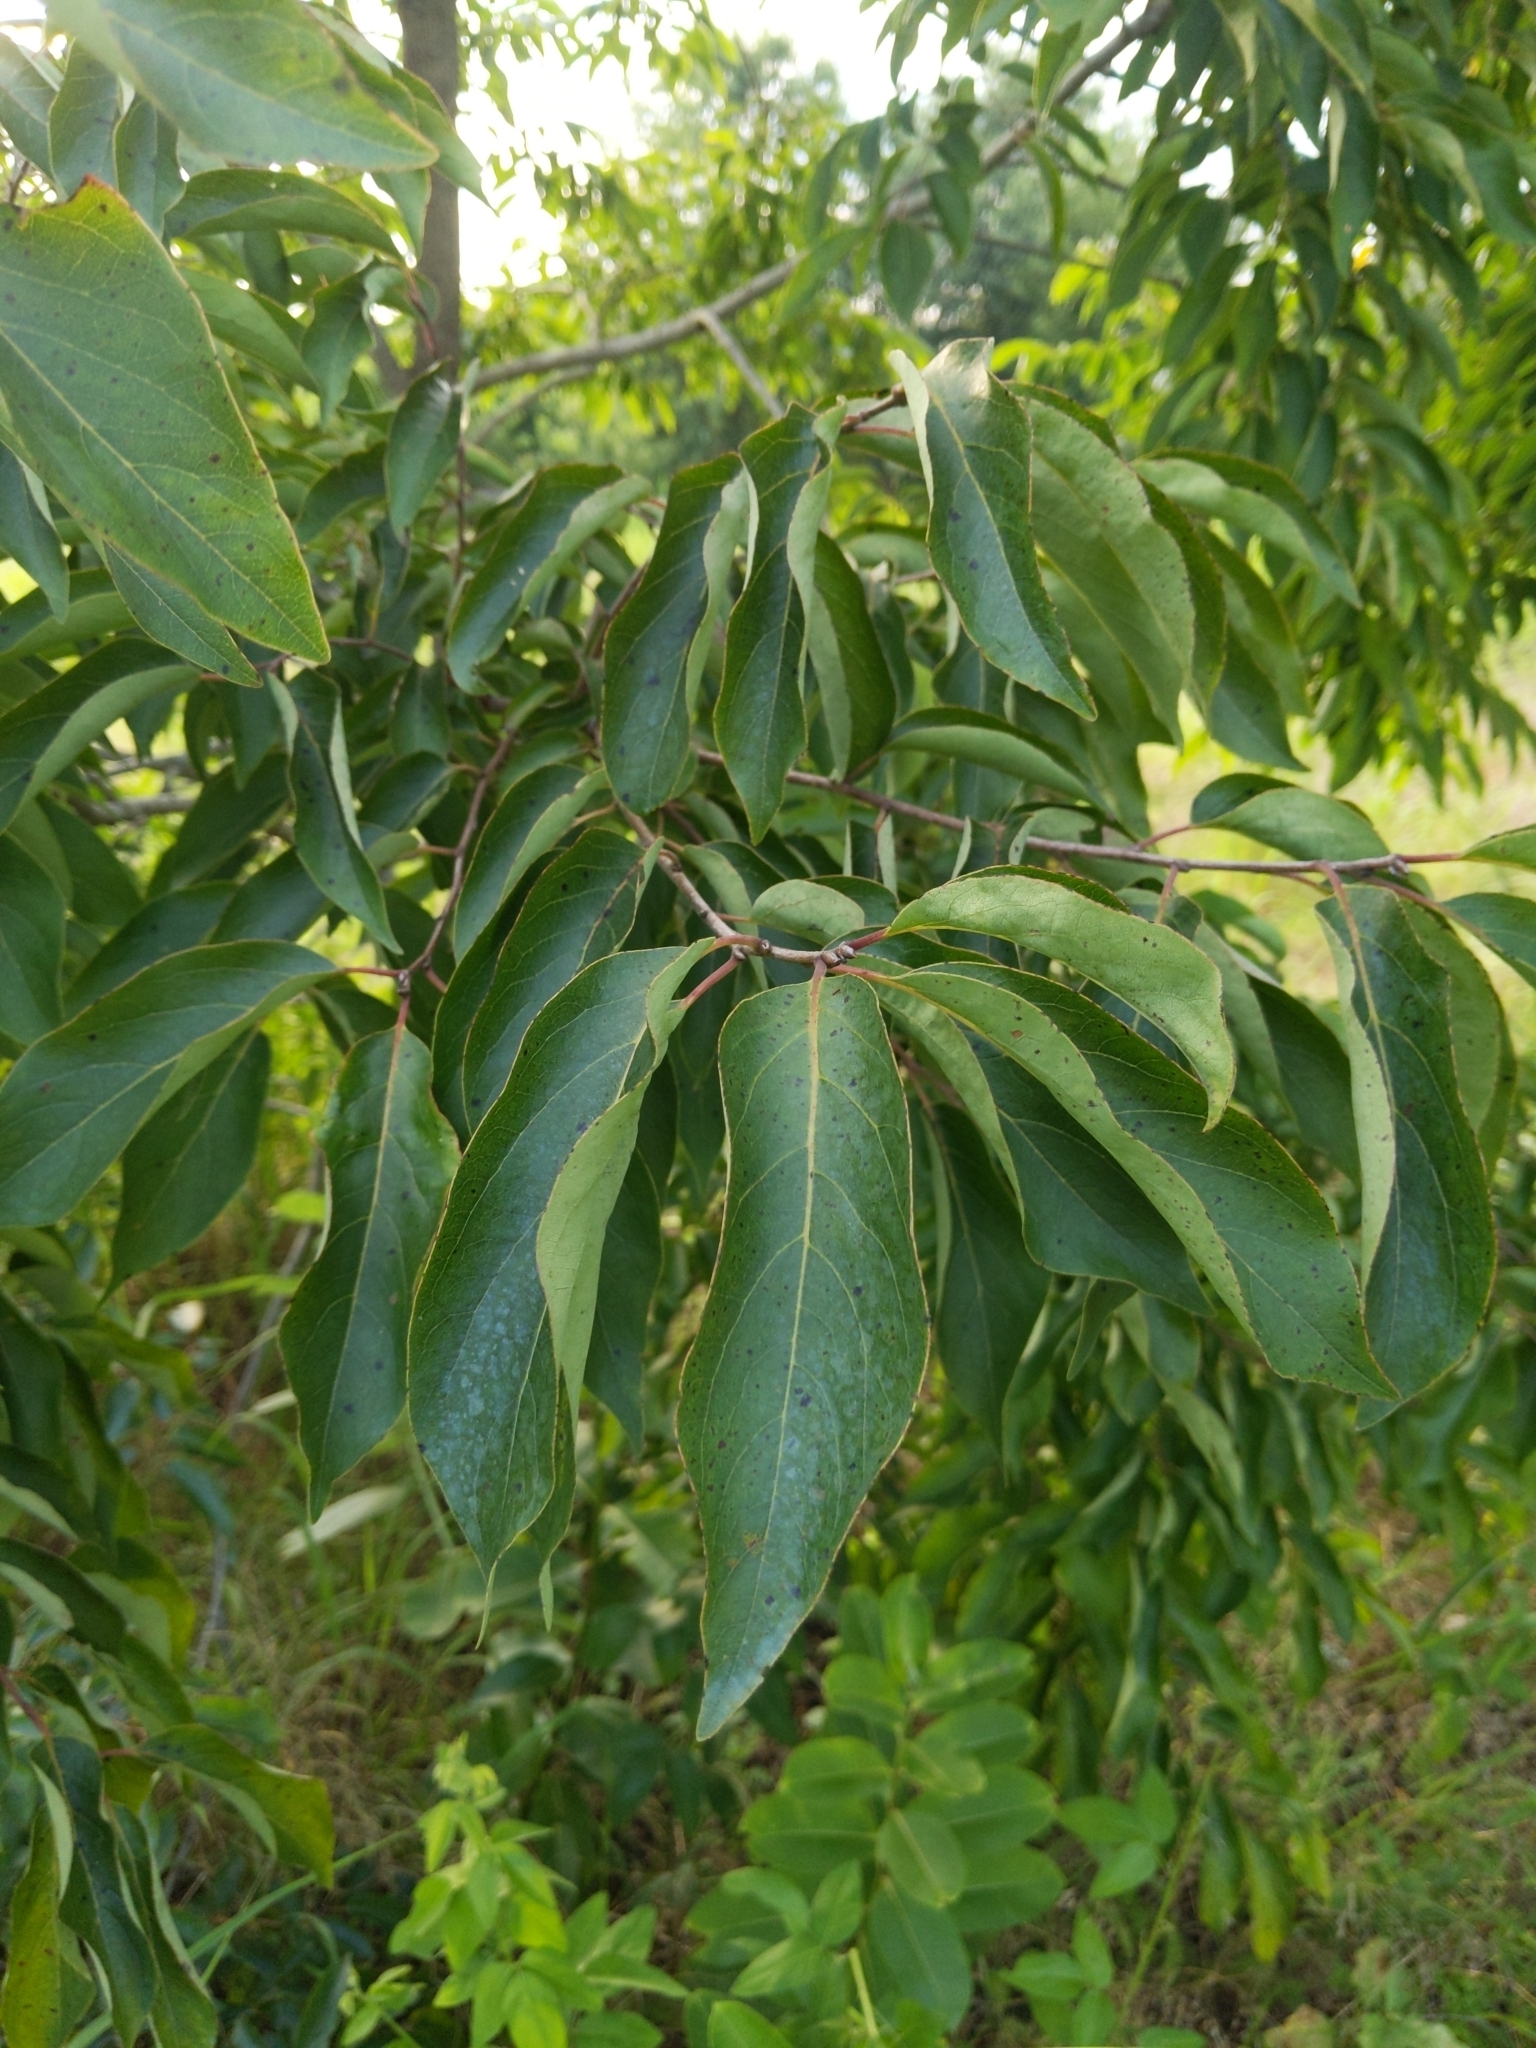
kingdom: Plantae
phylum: Tracheophyta
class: Magnoliopsida
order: Ericales
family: Ebenaceae
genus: Diospyros
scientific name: Diospyros virginiana
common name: Persimmon
